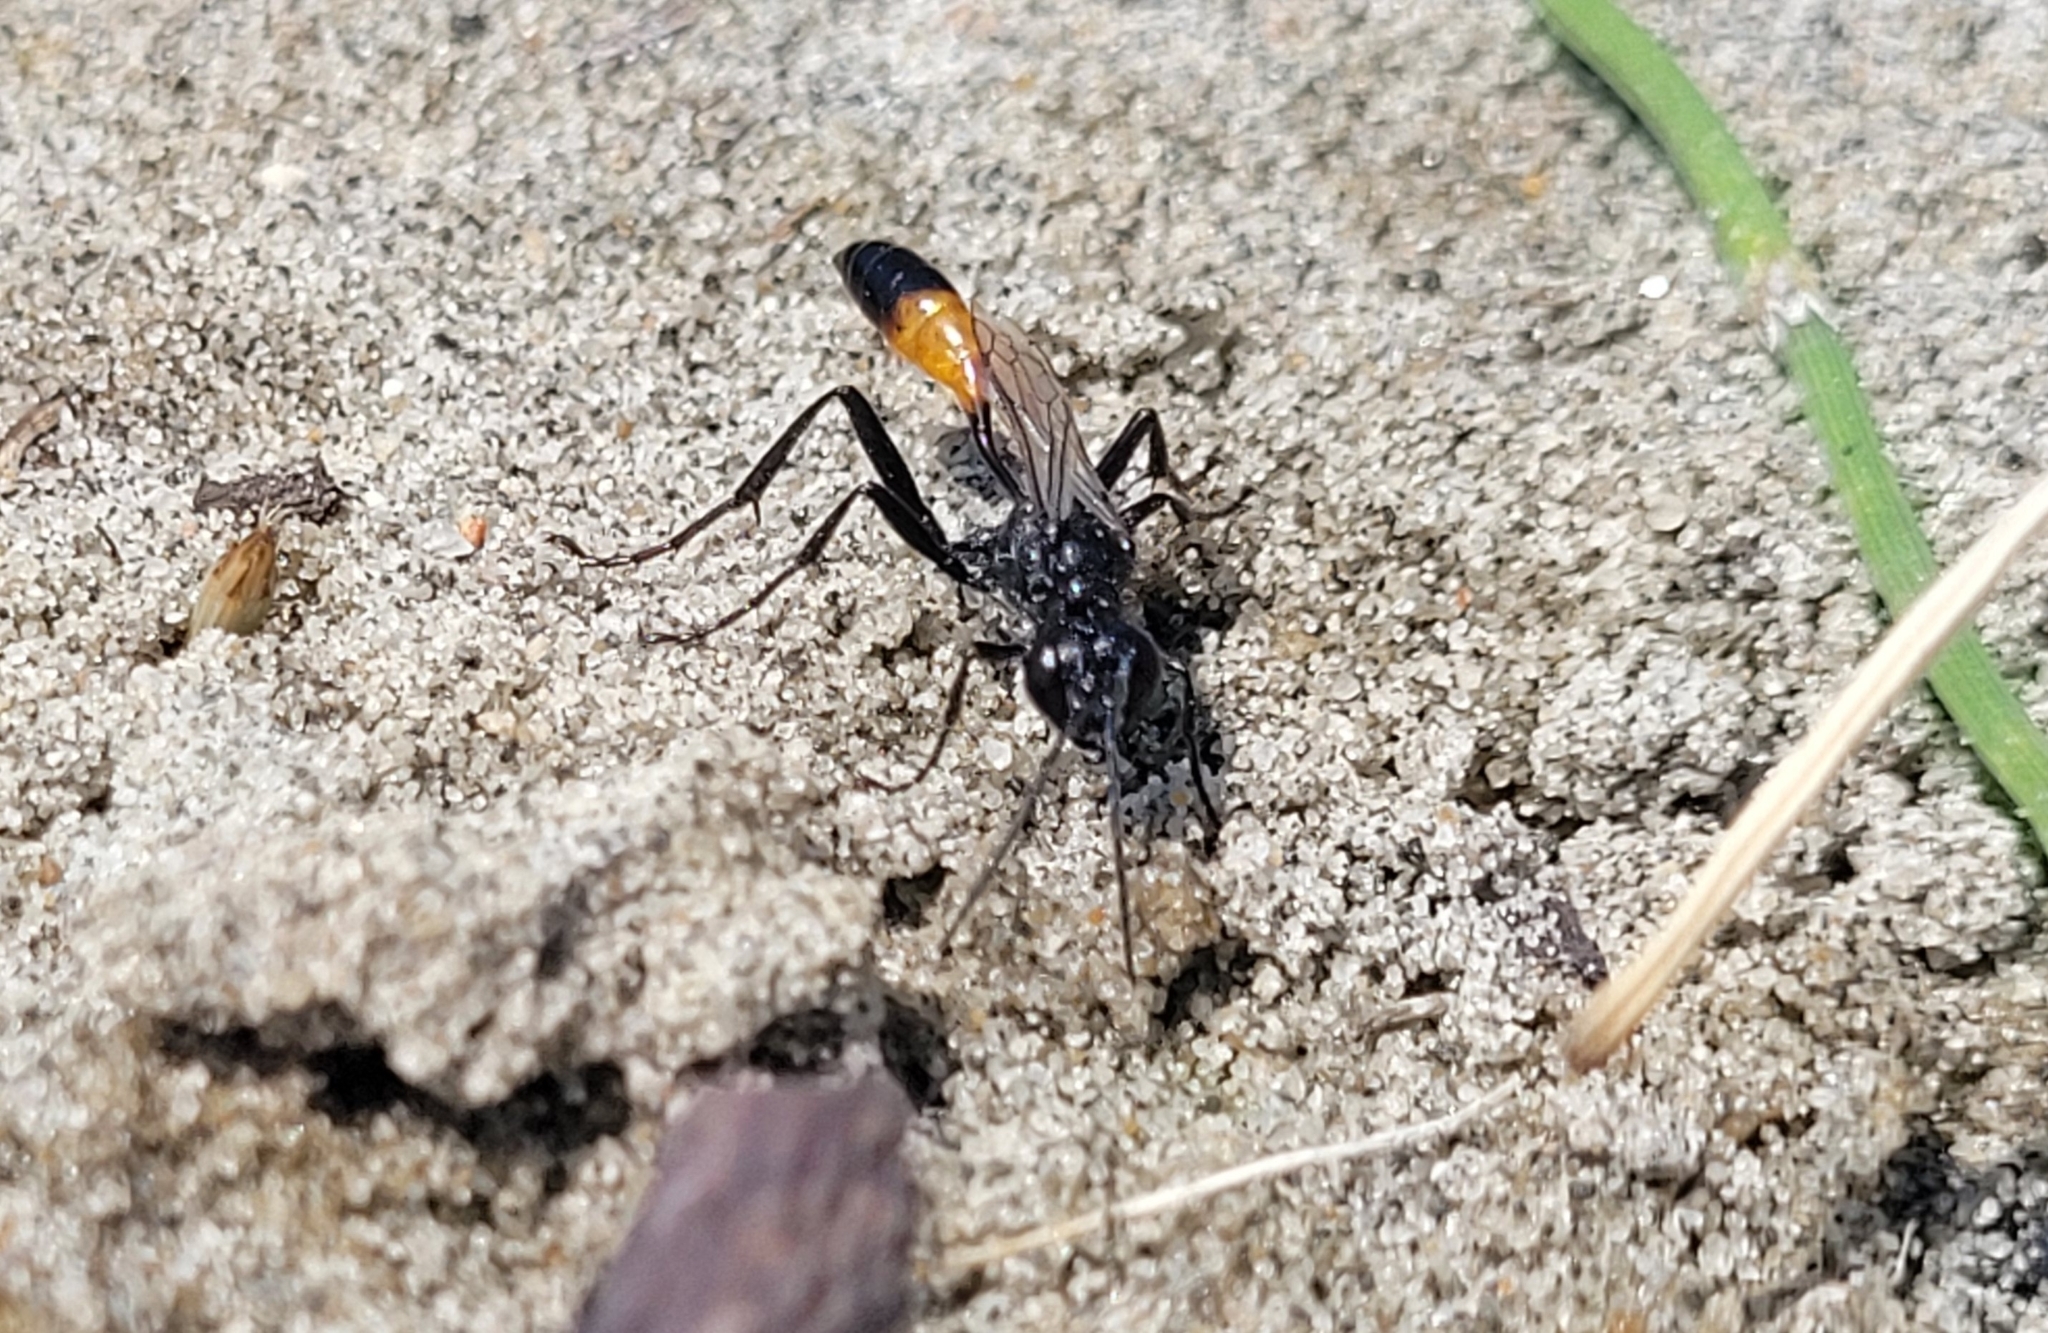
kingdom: Animalia
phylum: Arthropoda
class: Insecta
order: Hymenoptera
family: Sphecidae
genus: Podalonia
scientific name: Podalonia
